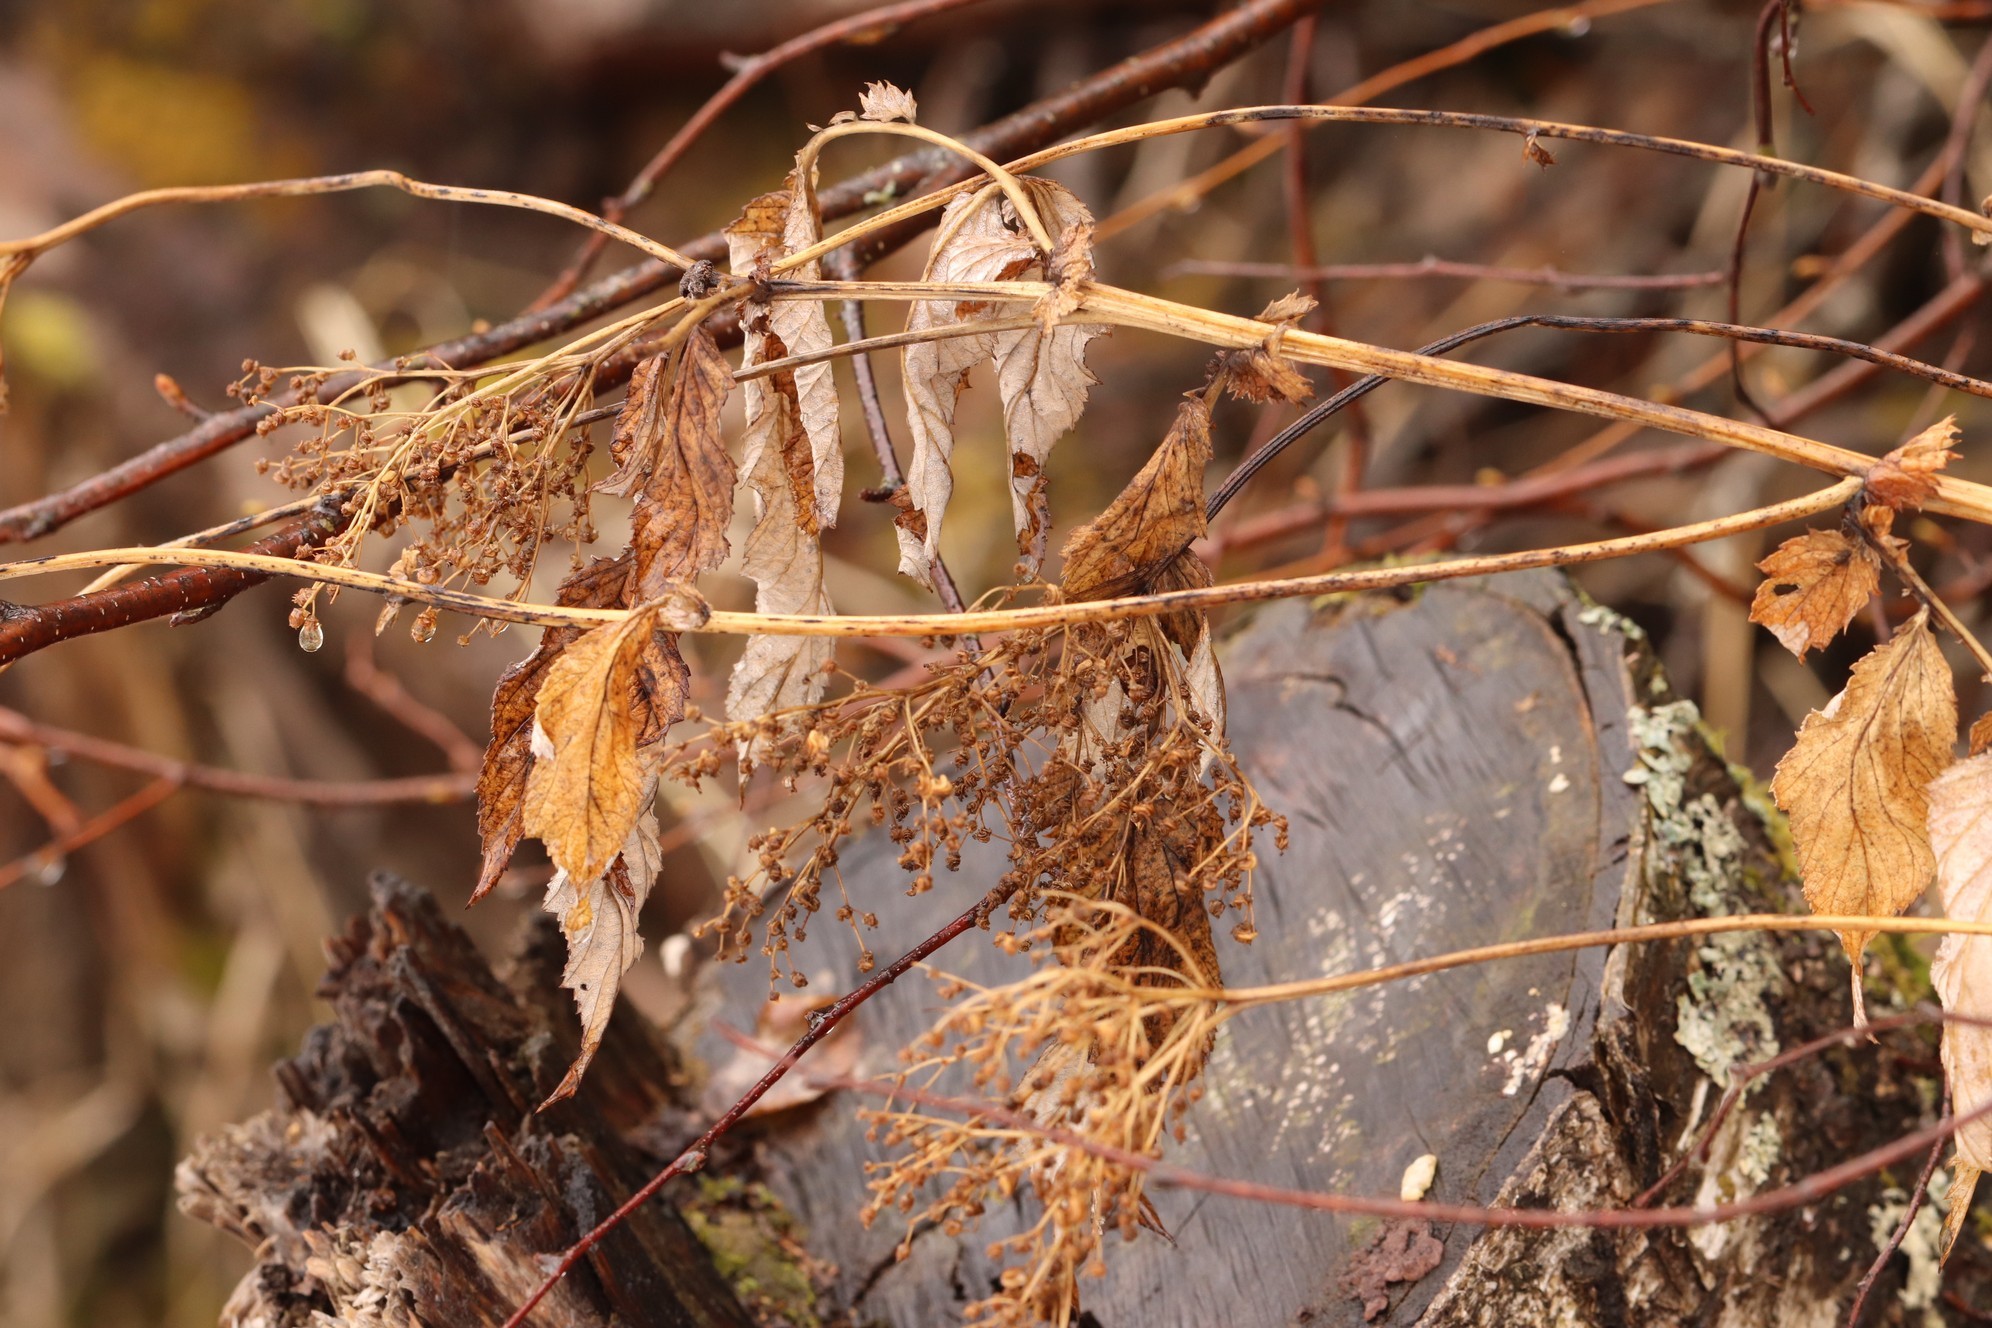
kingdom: Plantae
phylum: Tracheophyta
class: Magnoliopsida
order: Rosales
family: Rosaceae
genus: Filipendula
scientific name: Filipendula ulmaria
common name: Meadowsweet
